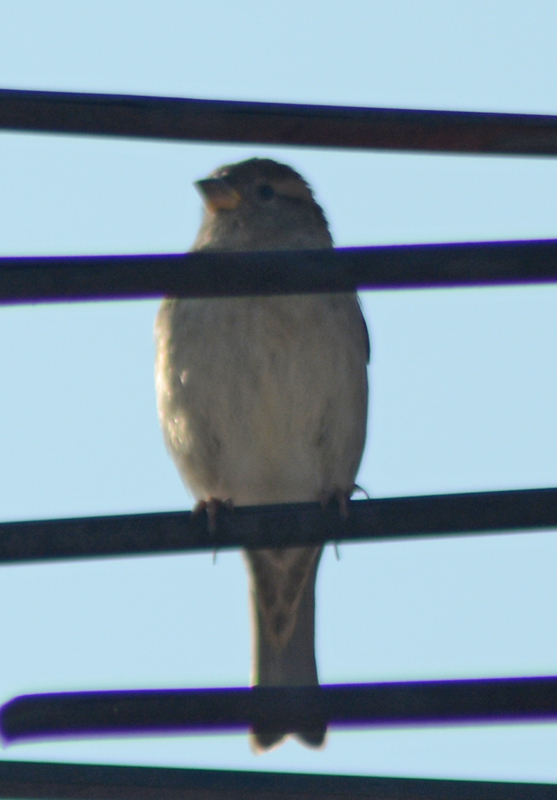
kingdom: Animalia
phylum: Chordata
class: Aves
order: Passeriformes
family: Passeridae
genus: Passer
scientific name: Passer domesticus
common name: House sparrow
